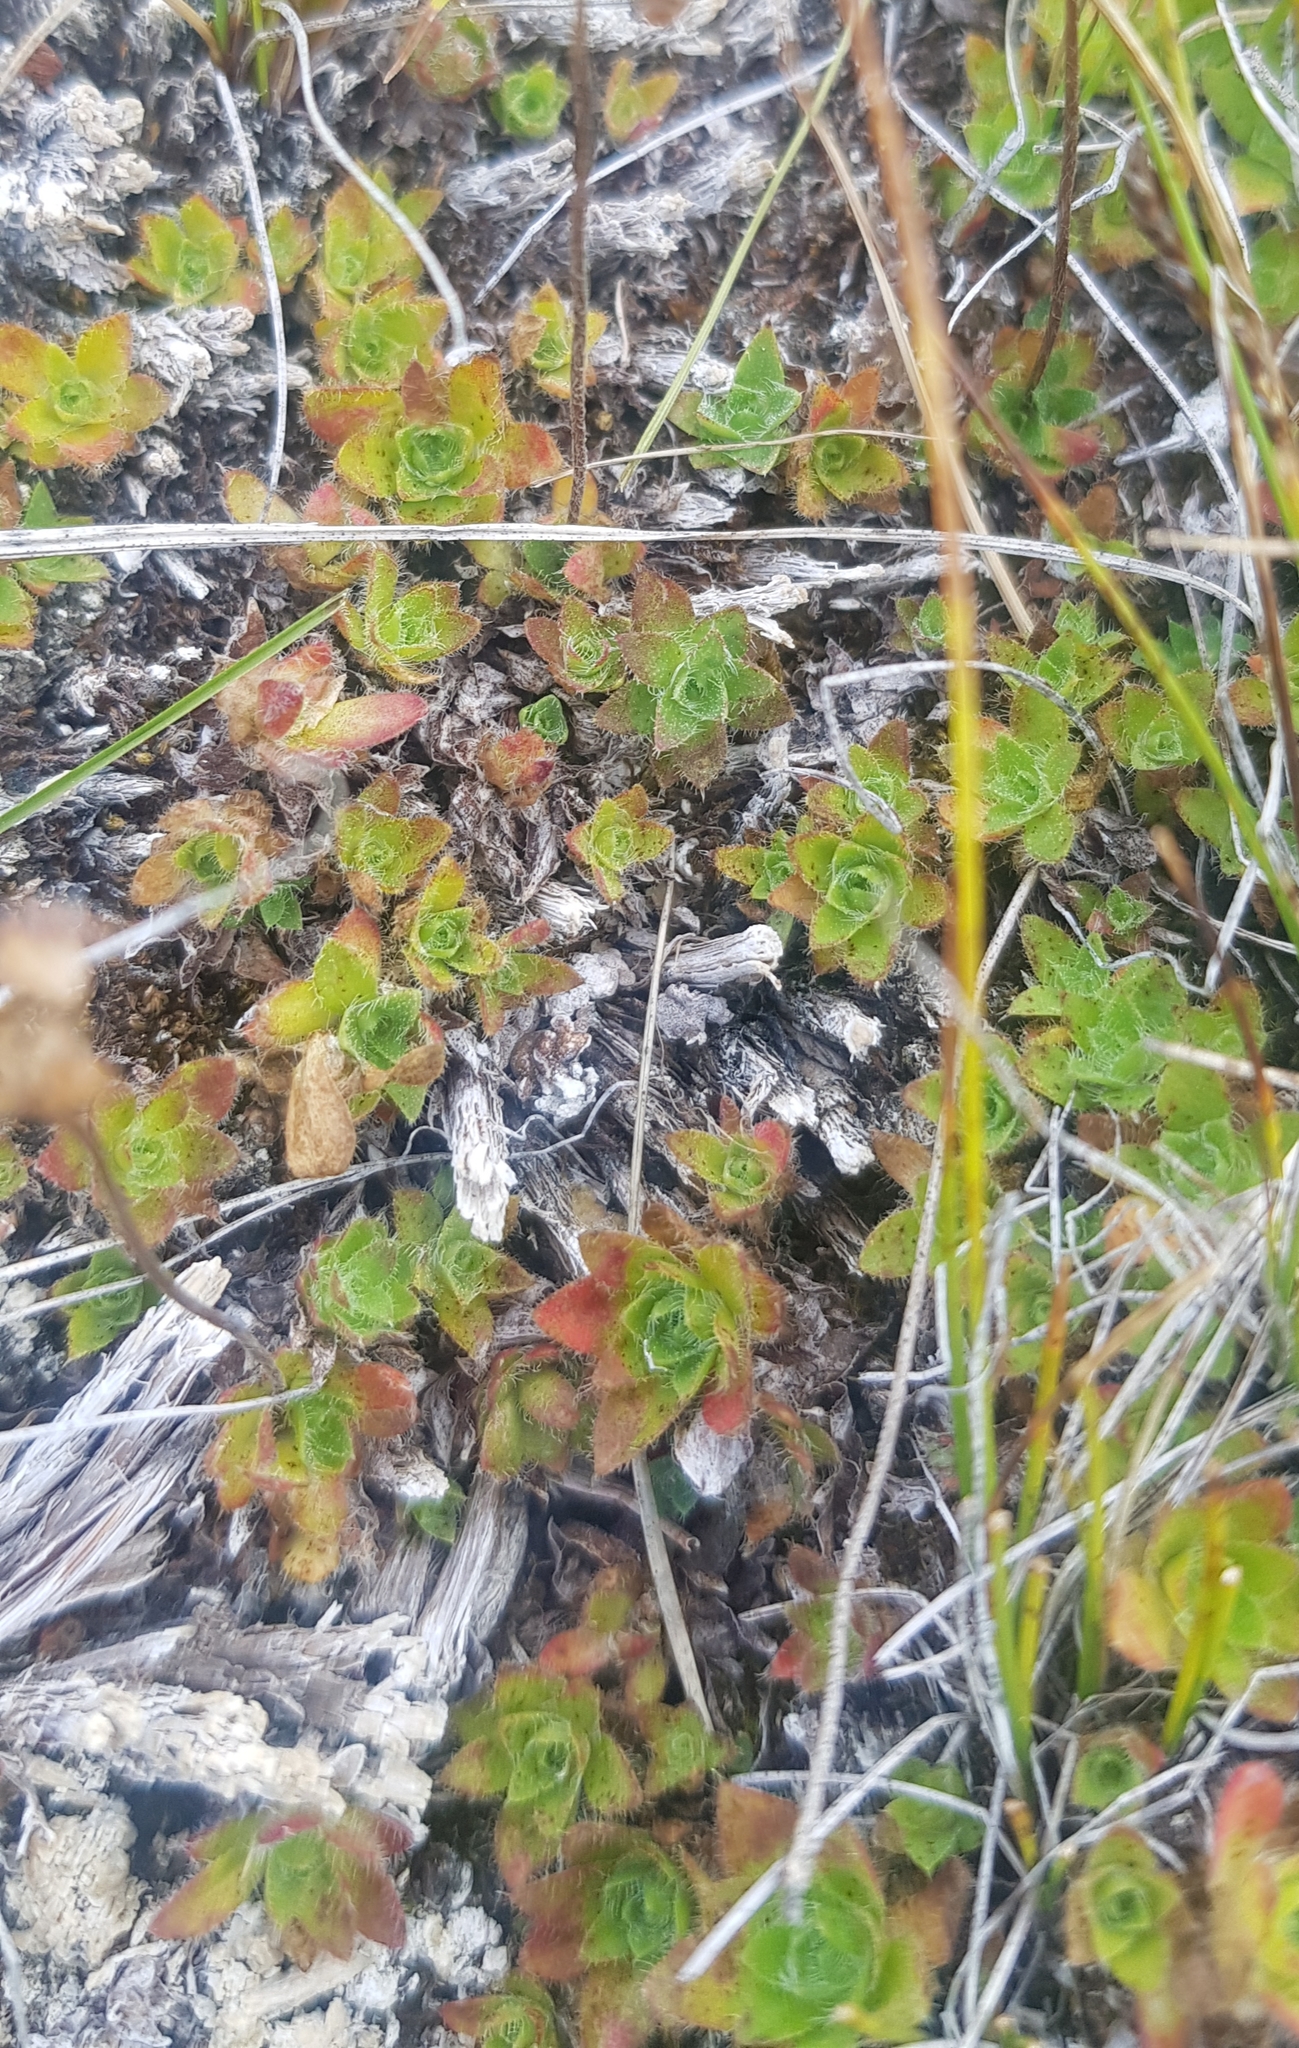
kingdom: Plantae
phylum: Tracheophyta
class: Magnoliopsida
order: Ericales
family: Primulaceae
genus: Androsace
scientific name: Androsace chamaejasme
